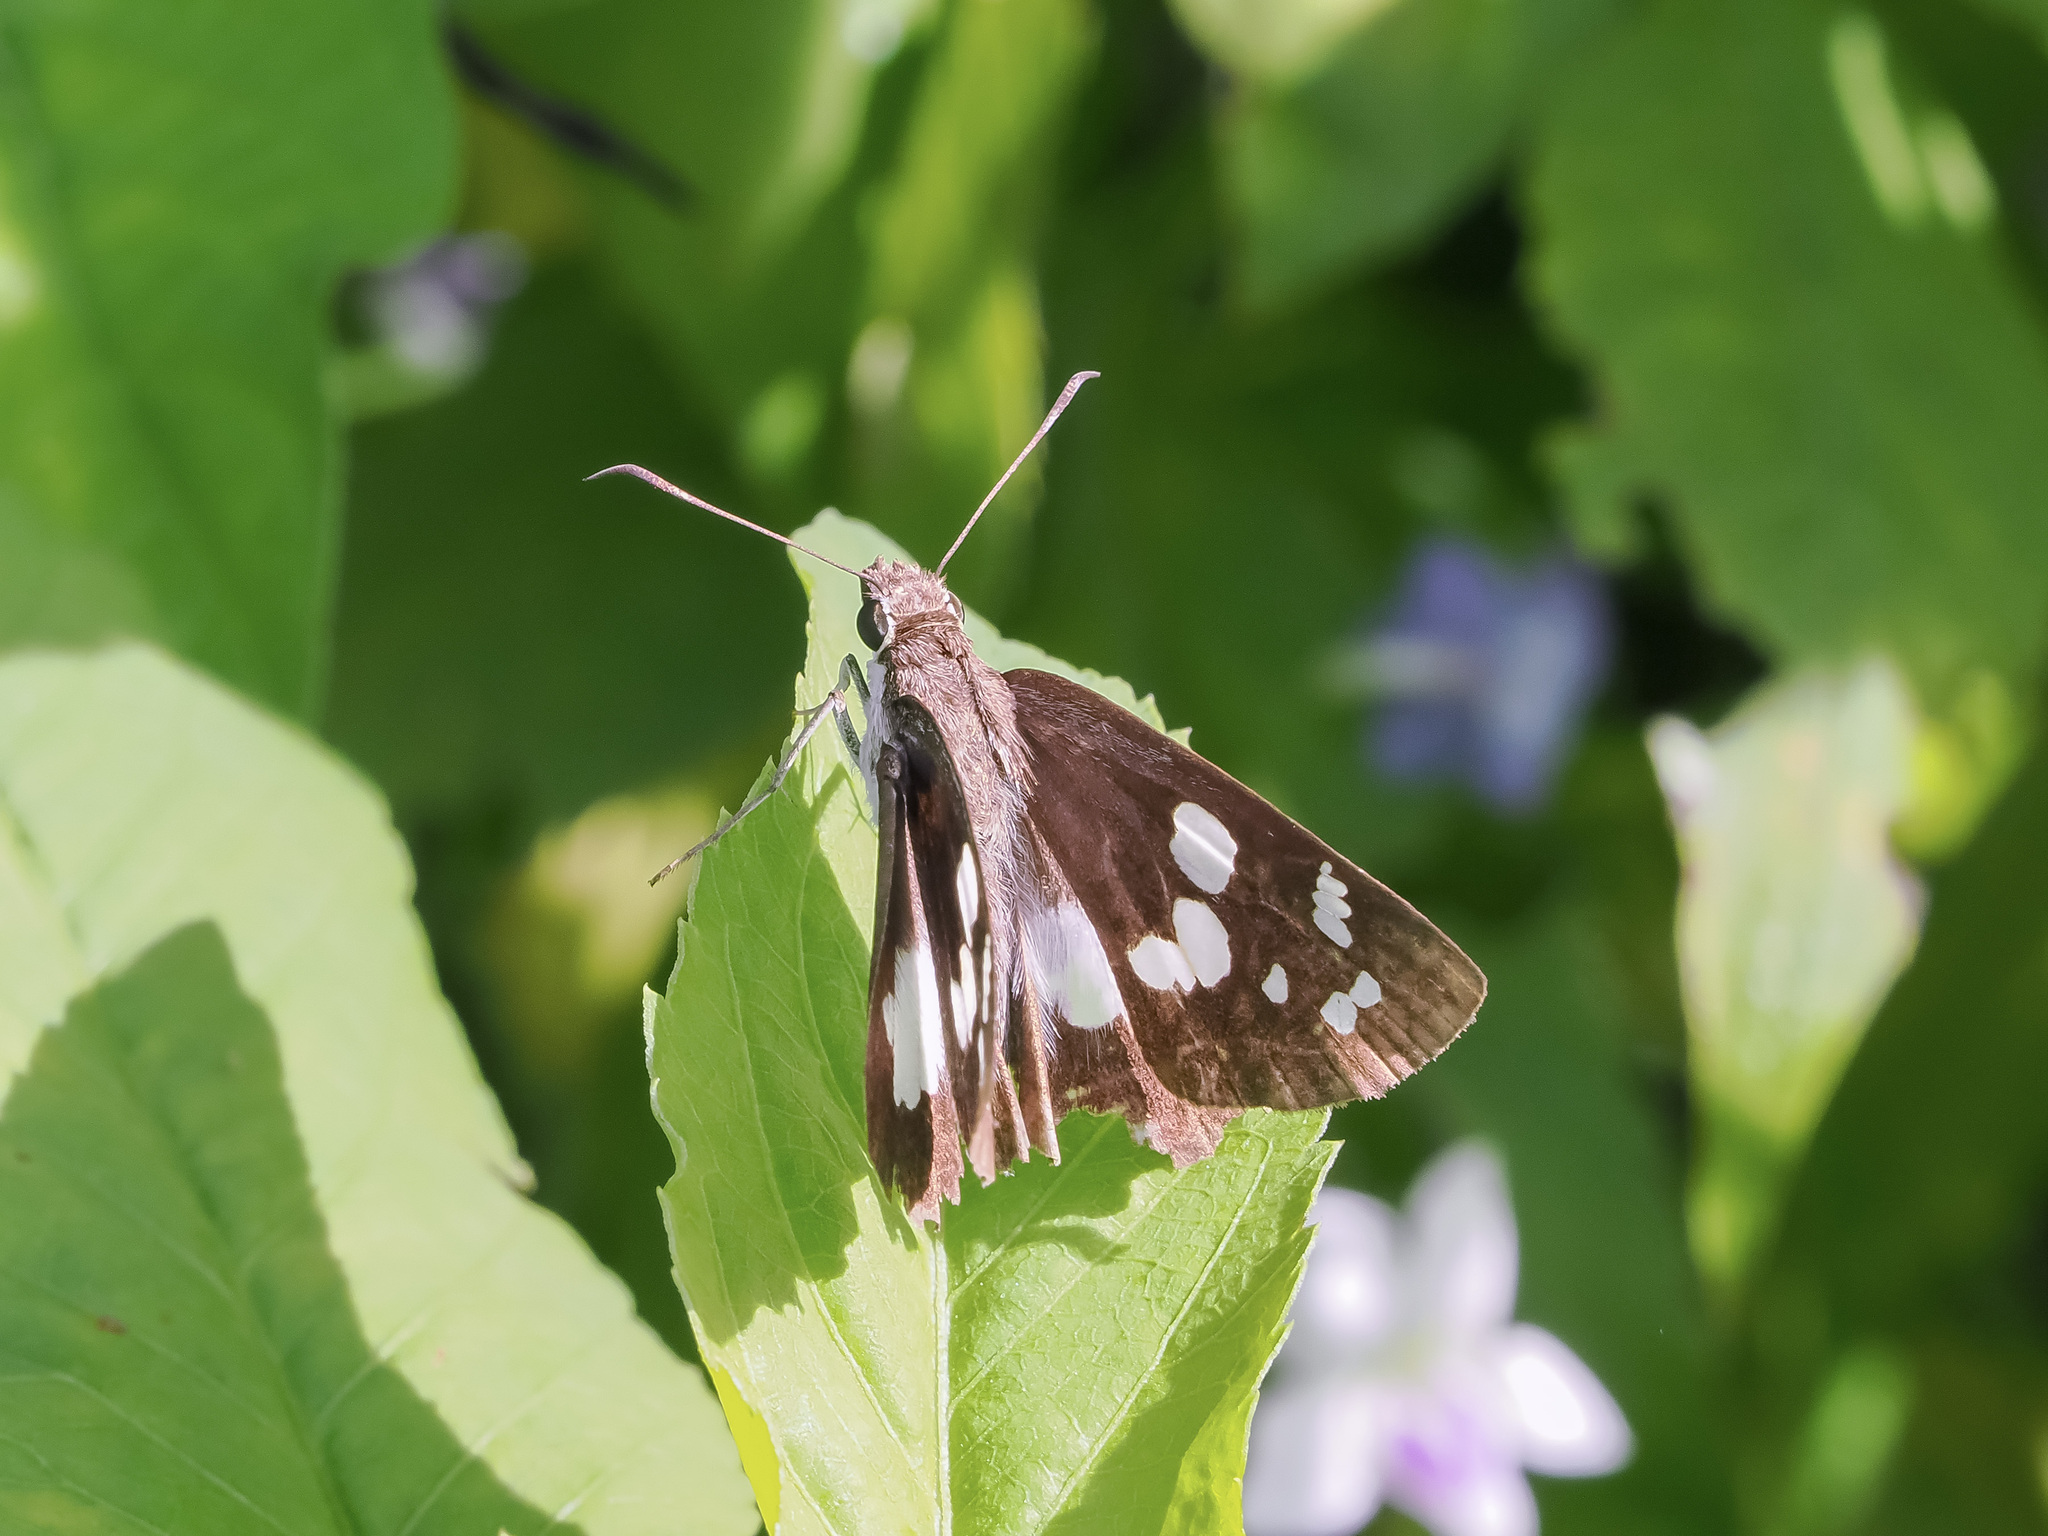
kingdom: Animalia
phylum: Arthropoda
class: Insecta
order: Lepidoptera
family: Hesperiidae
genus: Udaspes
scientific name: Udaspes folus
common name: Grass demon
